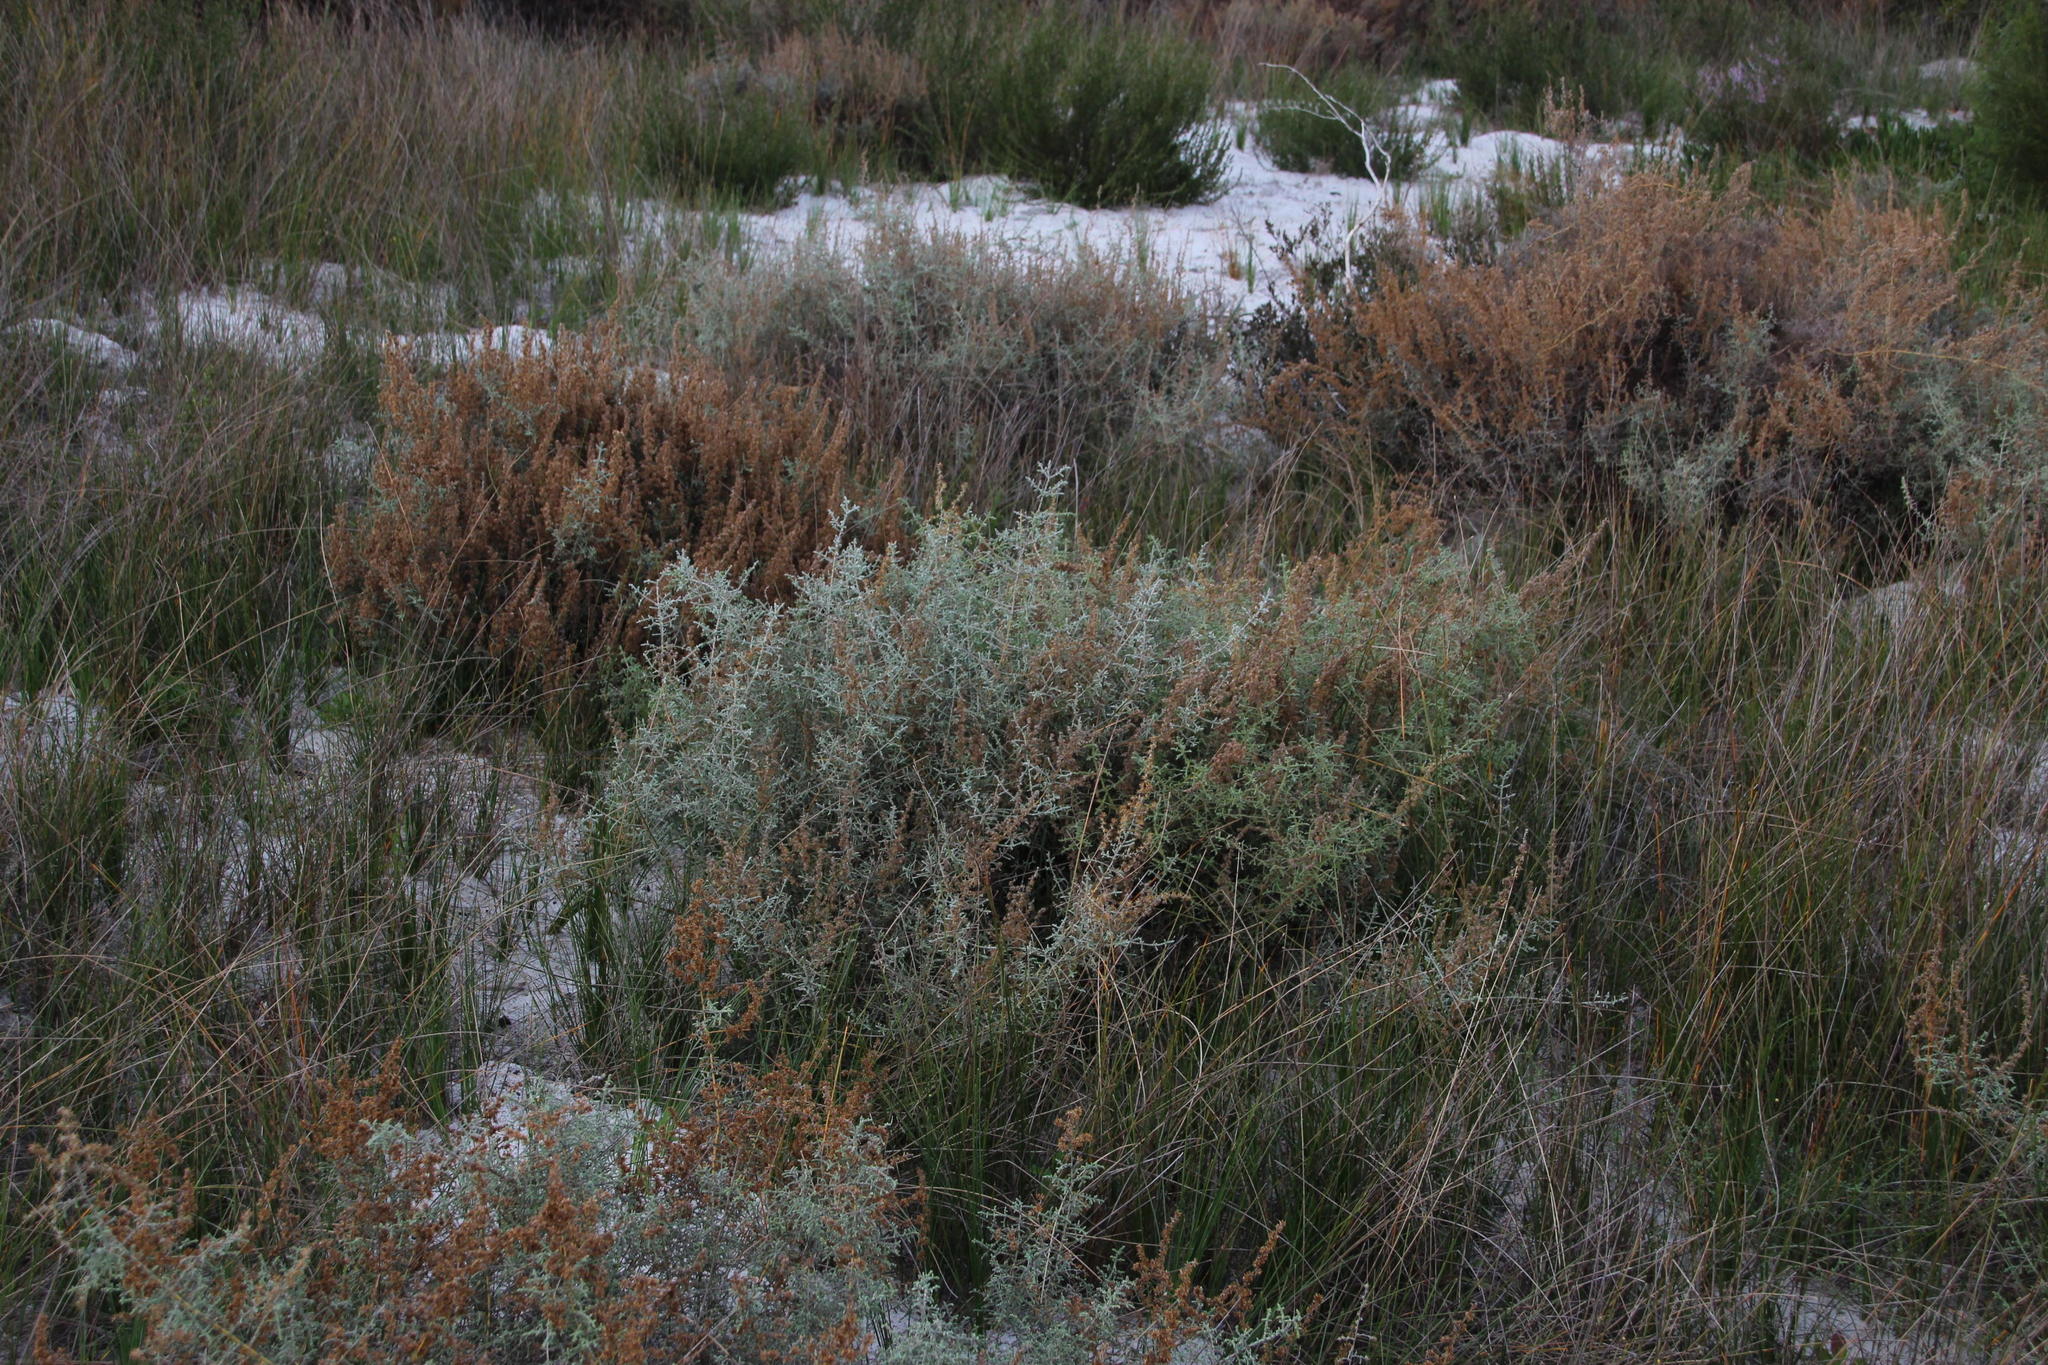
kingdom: Plantae
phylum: Tracheophyta
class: Magnoliopsida
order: Asterales
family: Asteraceae
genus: Seriphium
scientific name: Seriphium plumosum
